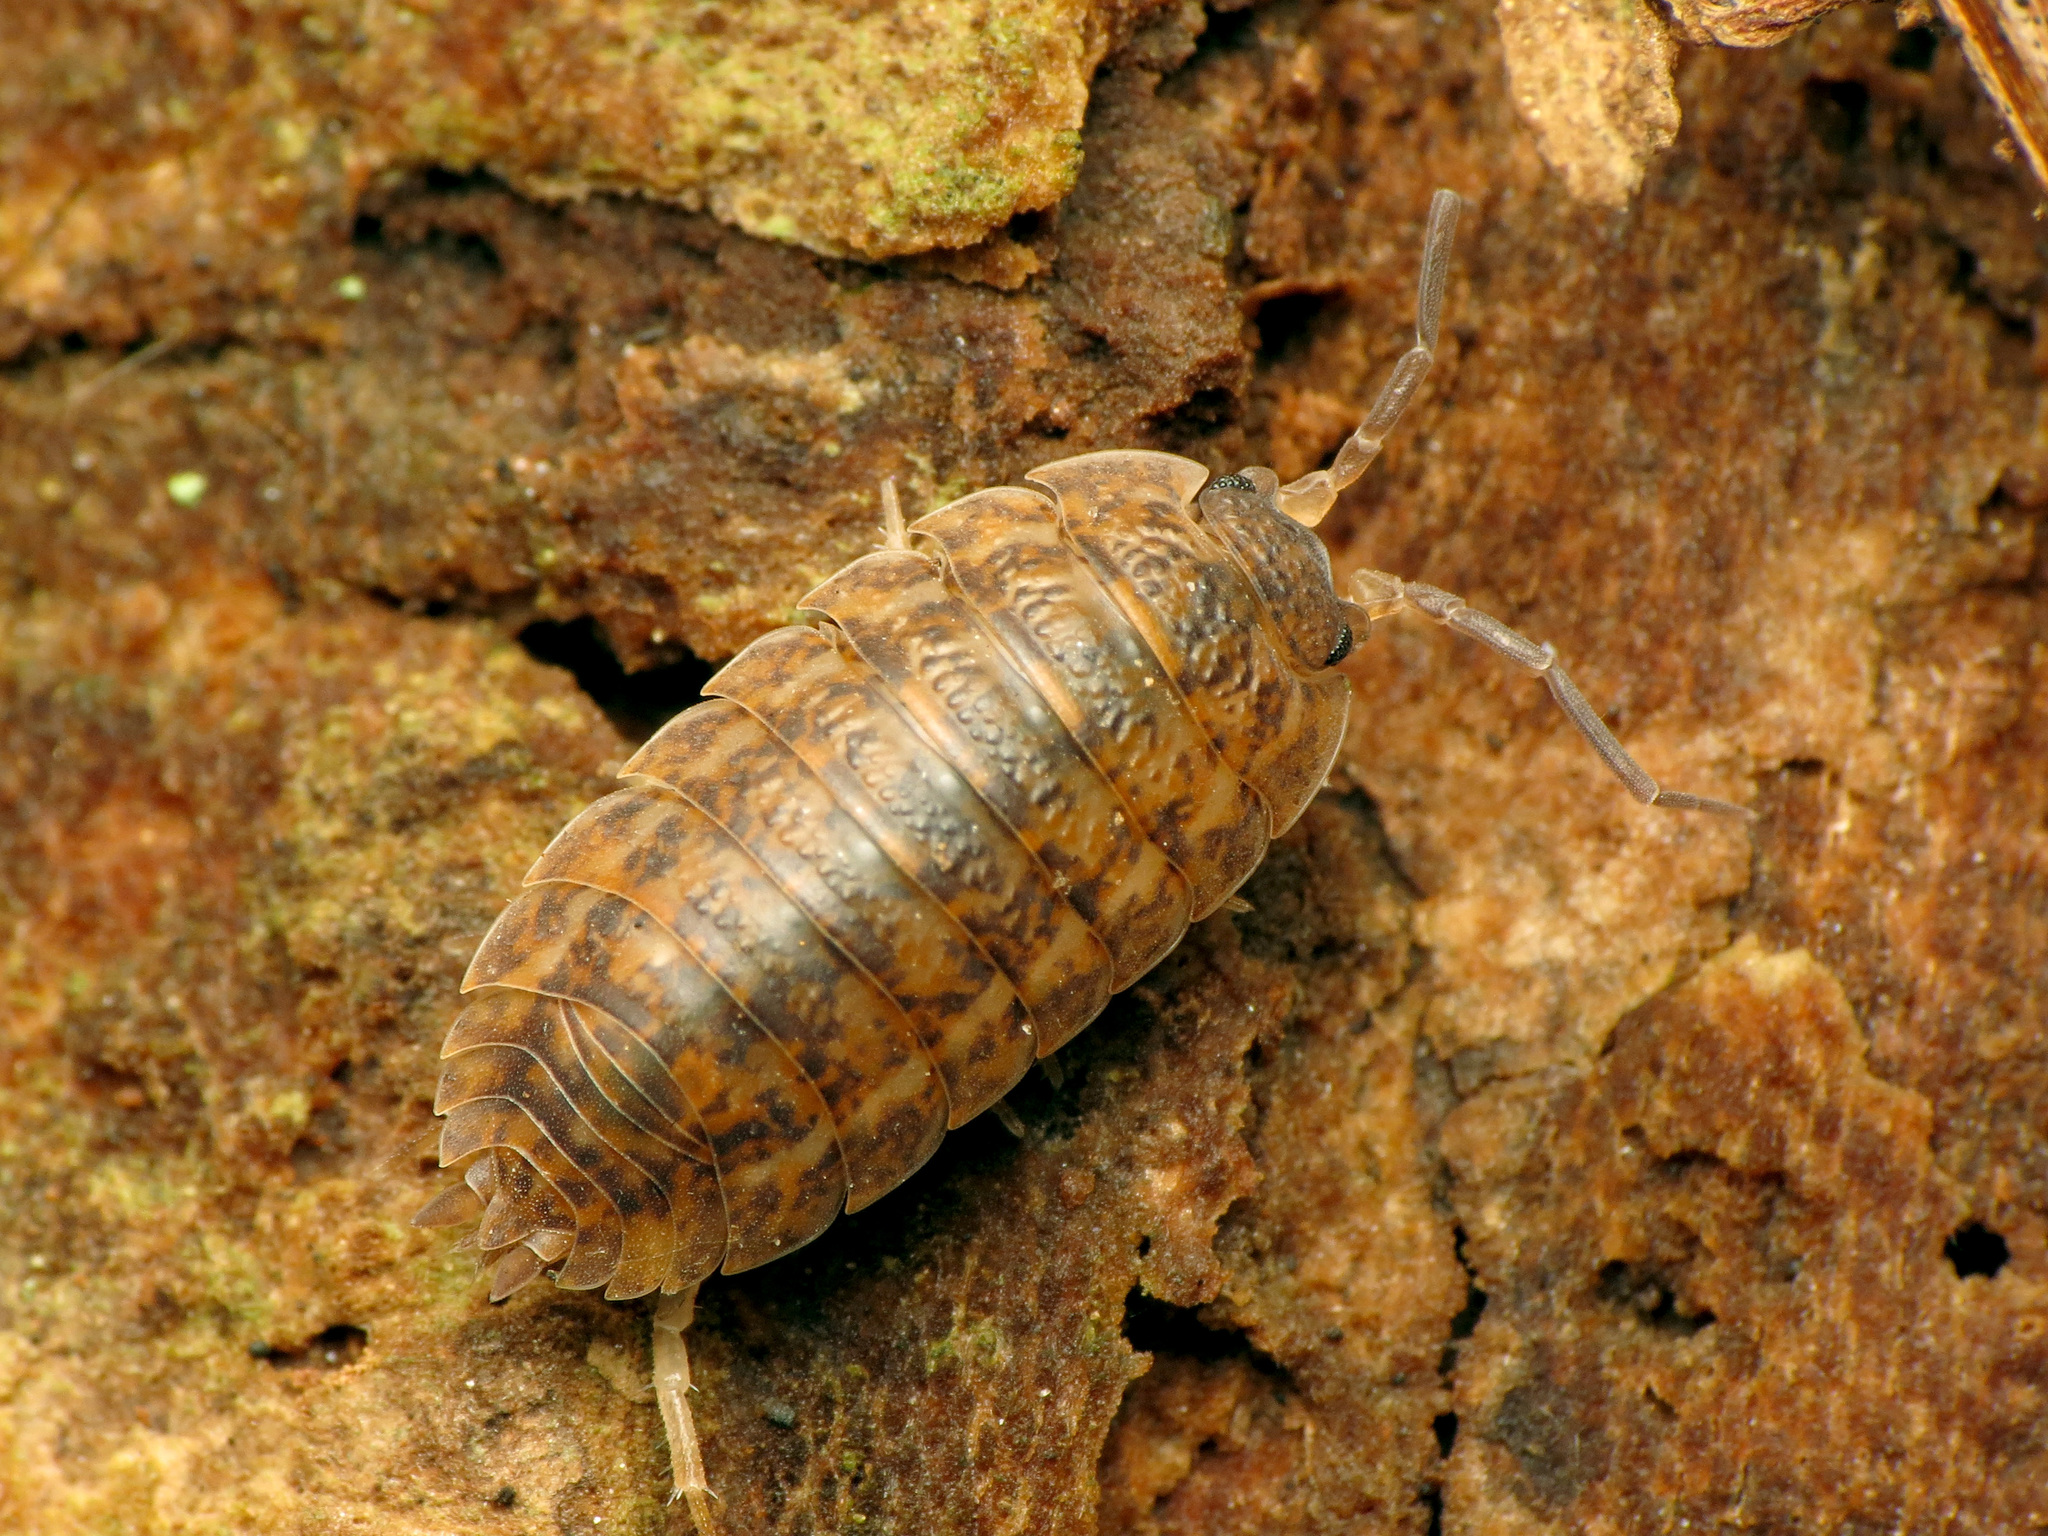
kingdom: Animalia
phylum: Arthropoda
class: Malacostraca
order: Isopoda
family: Trachelipodidae
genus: Trachelipus
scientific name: Trachelipus rathkii
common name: Isopod
